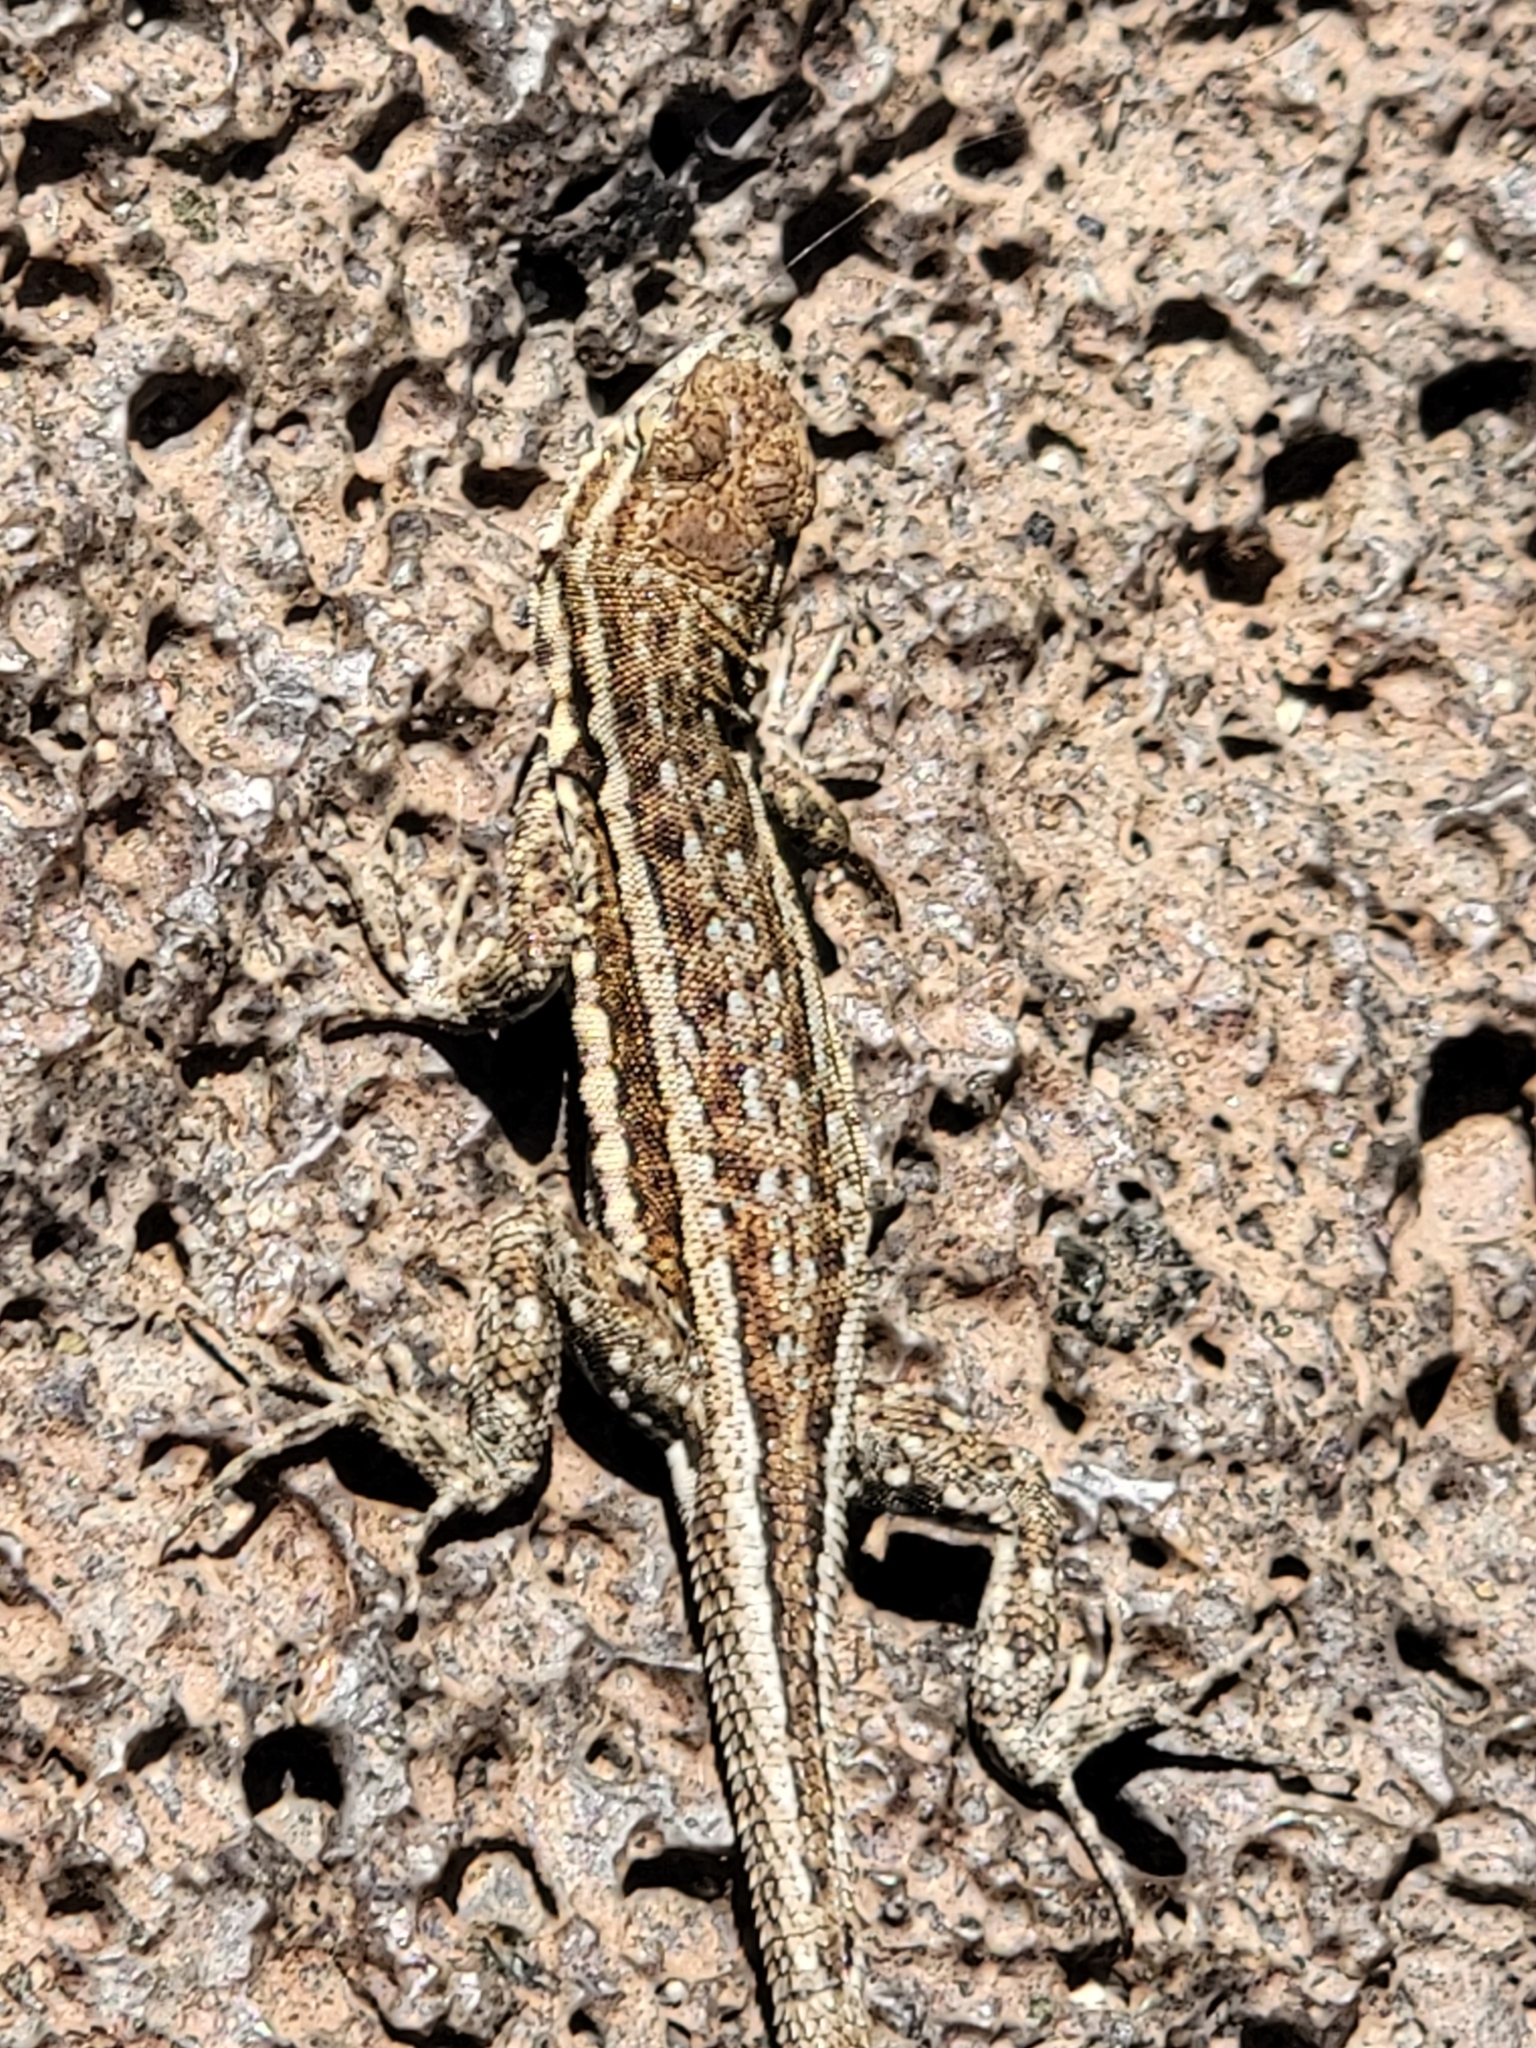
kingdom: Animalia
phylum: Chordata
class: Squamata
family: Phrynosomatidae
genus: Uta
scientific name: Uta stansburiana
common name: Side-blotched lizard
